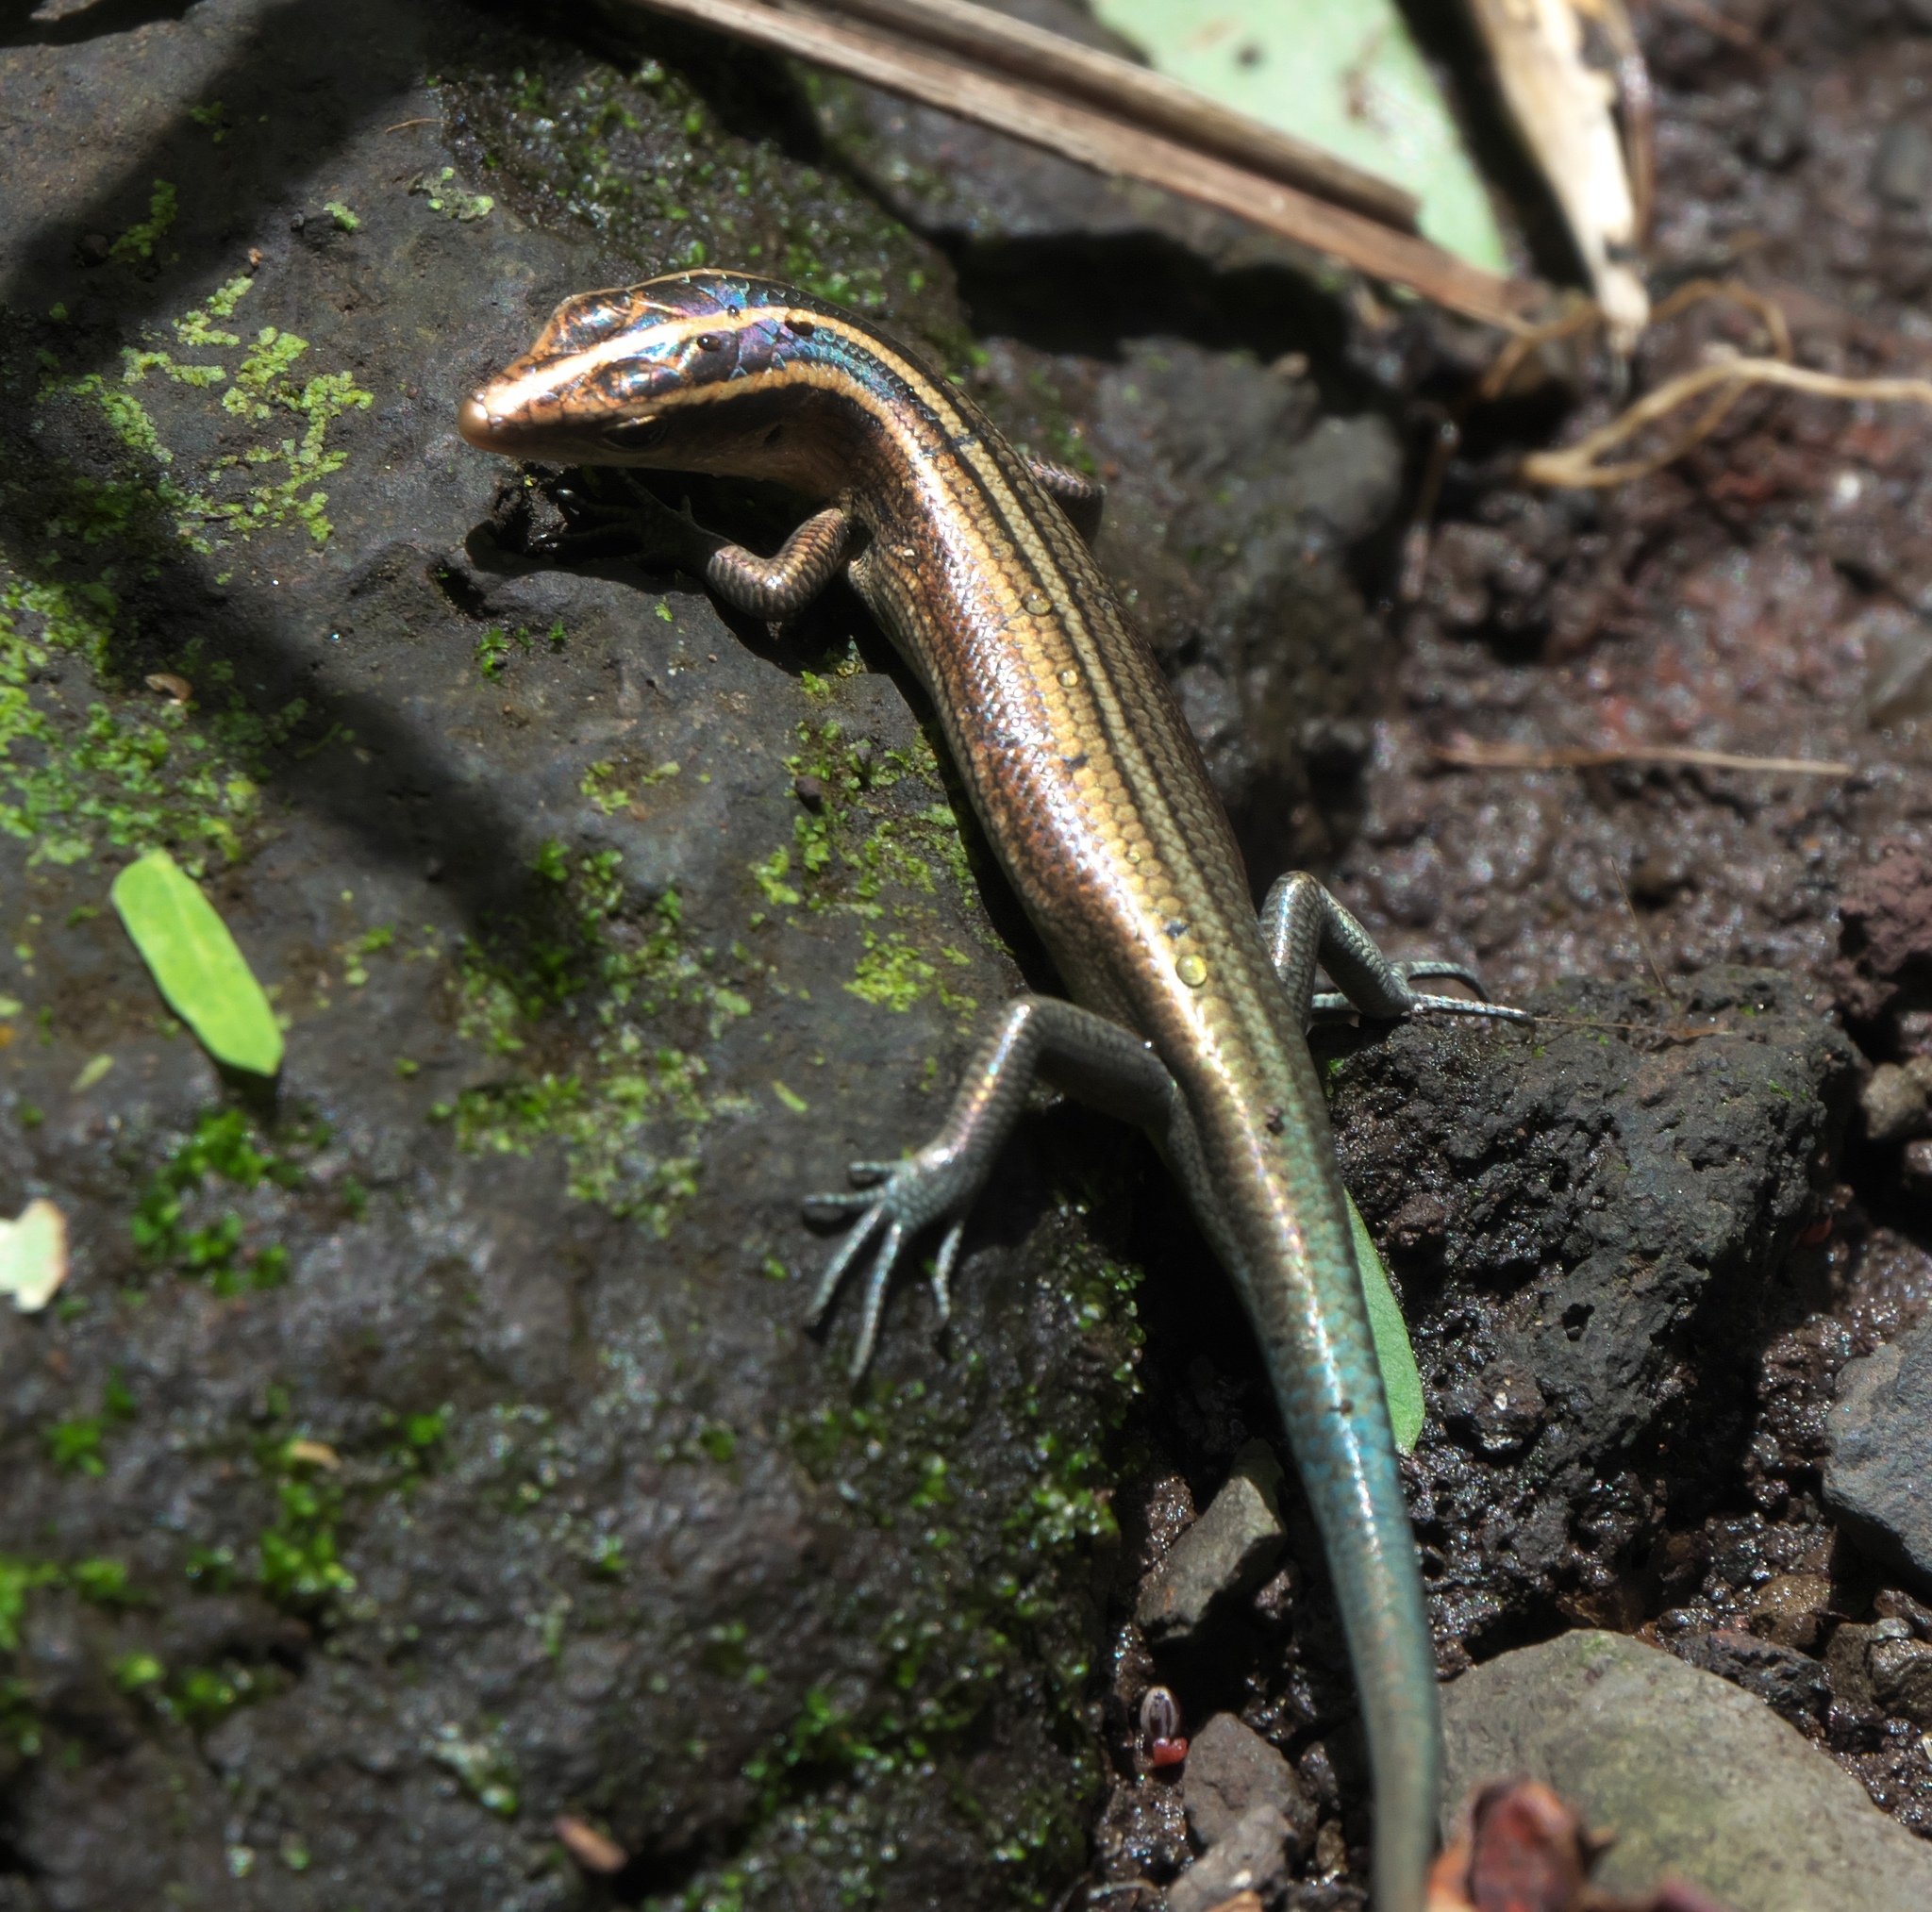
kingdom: Animalia
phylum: Chordata
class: Squamata
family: Scincidae
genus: Emoia
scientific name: Emoia impar
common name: Azure-tailed skink
